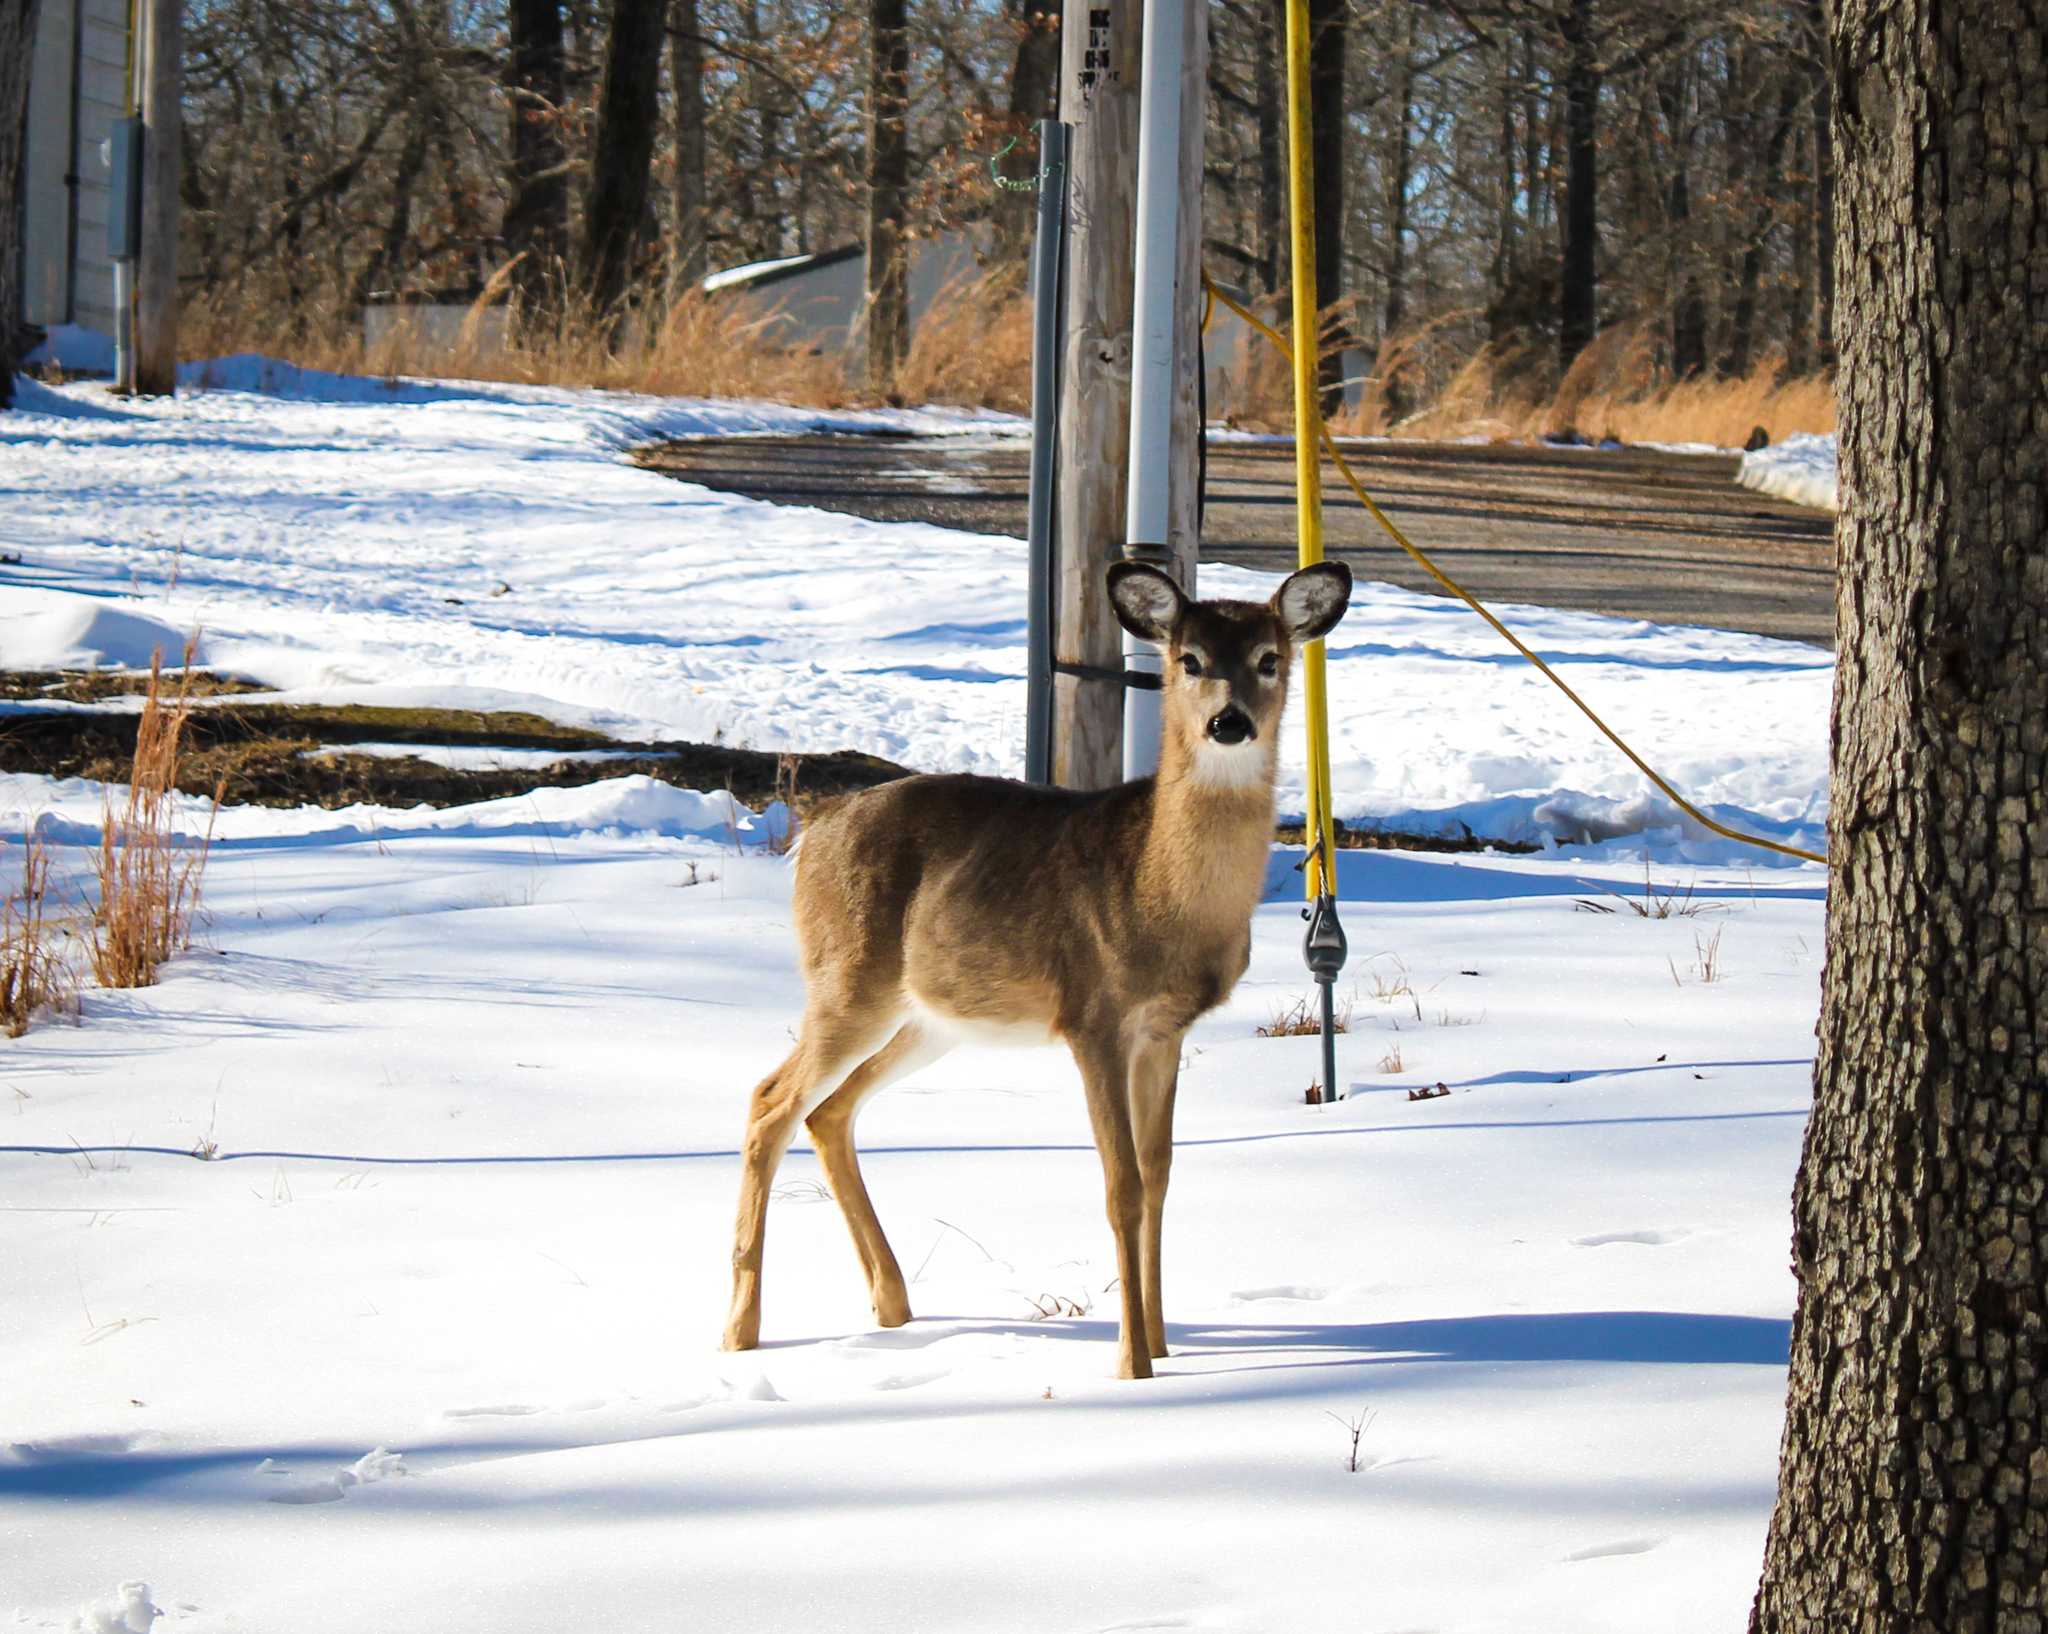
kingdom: Animalia
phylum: Chordata
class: Mammalia
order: Artiodactyla
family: Cervidae
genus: Odocoileus
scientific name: Odocoileus virginianus
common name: White-tailed deer
